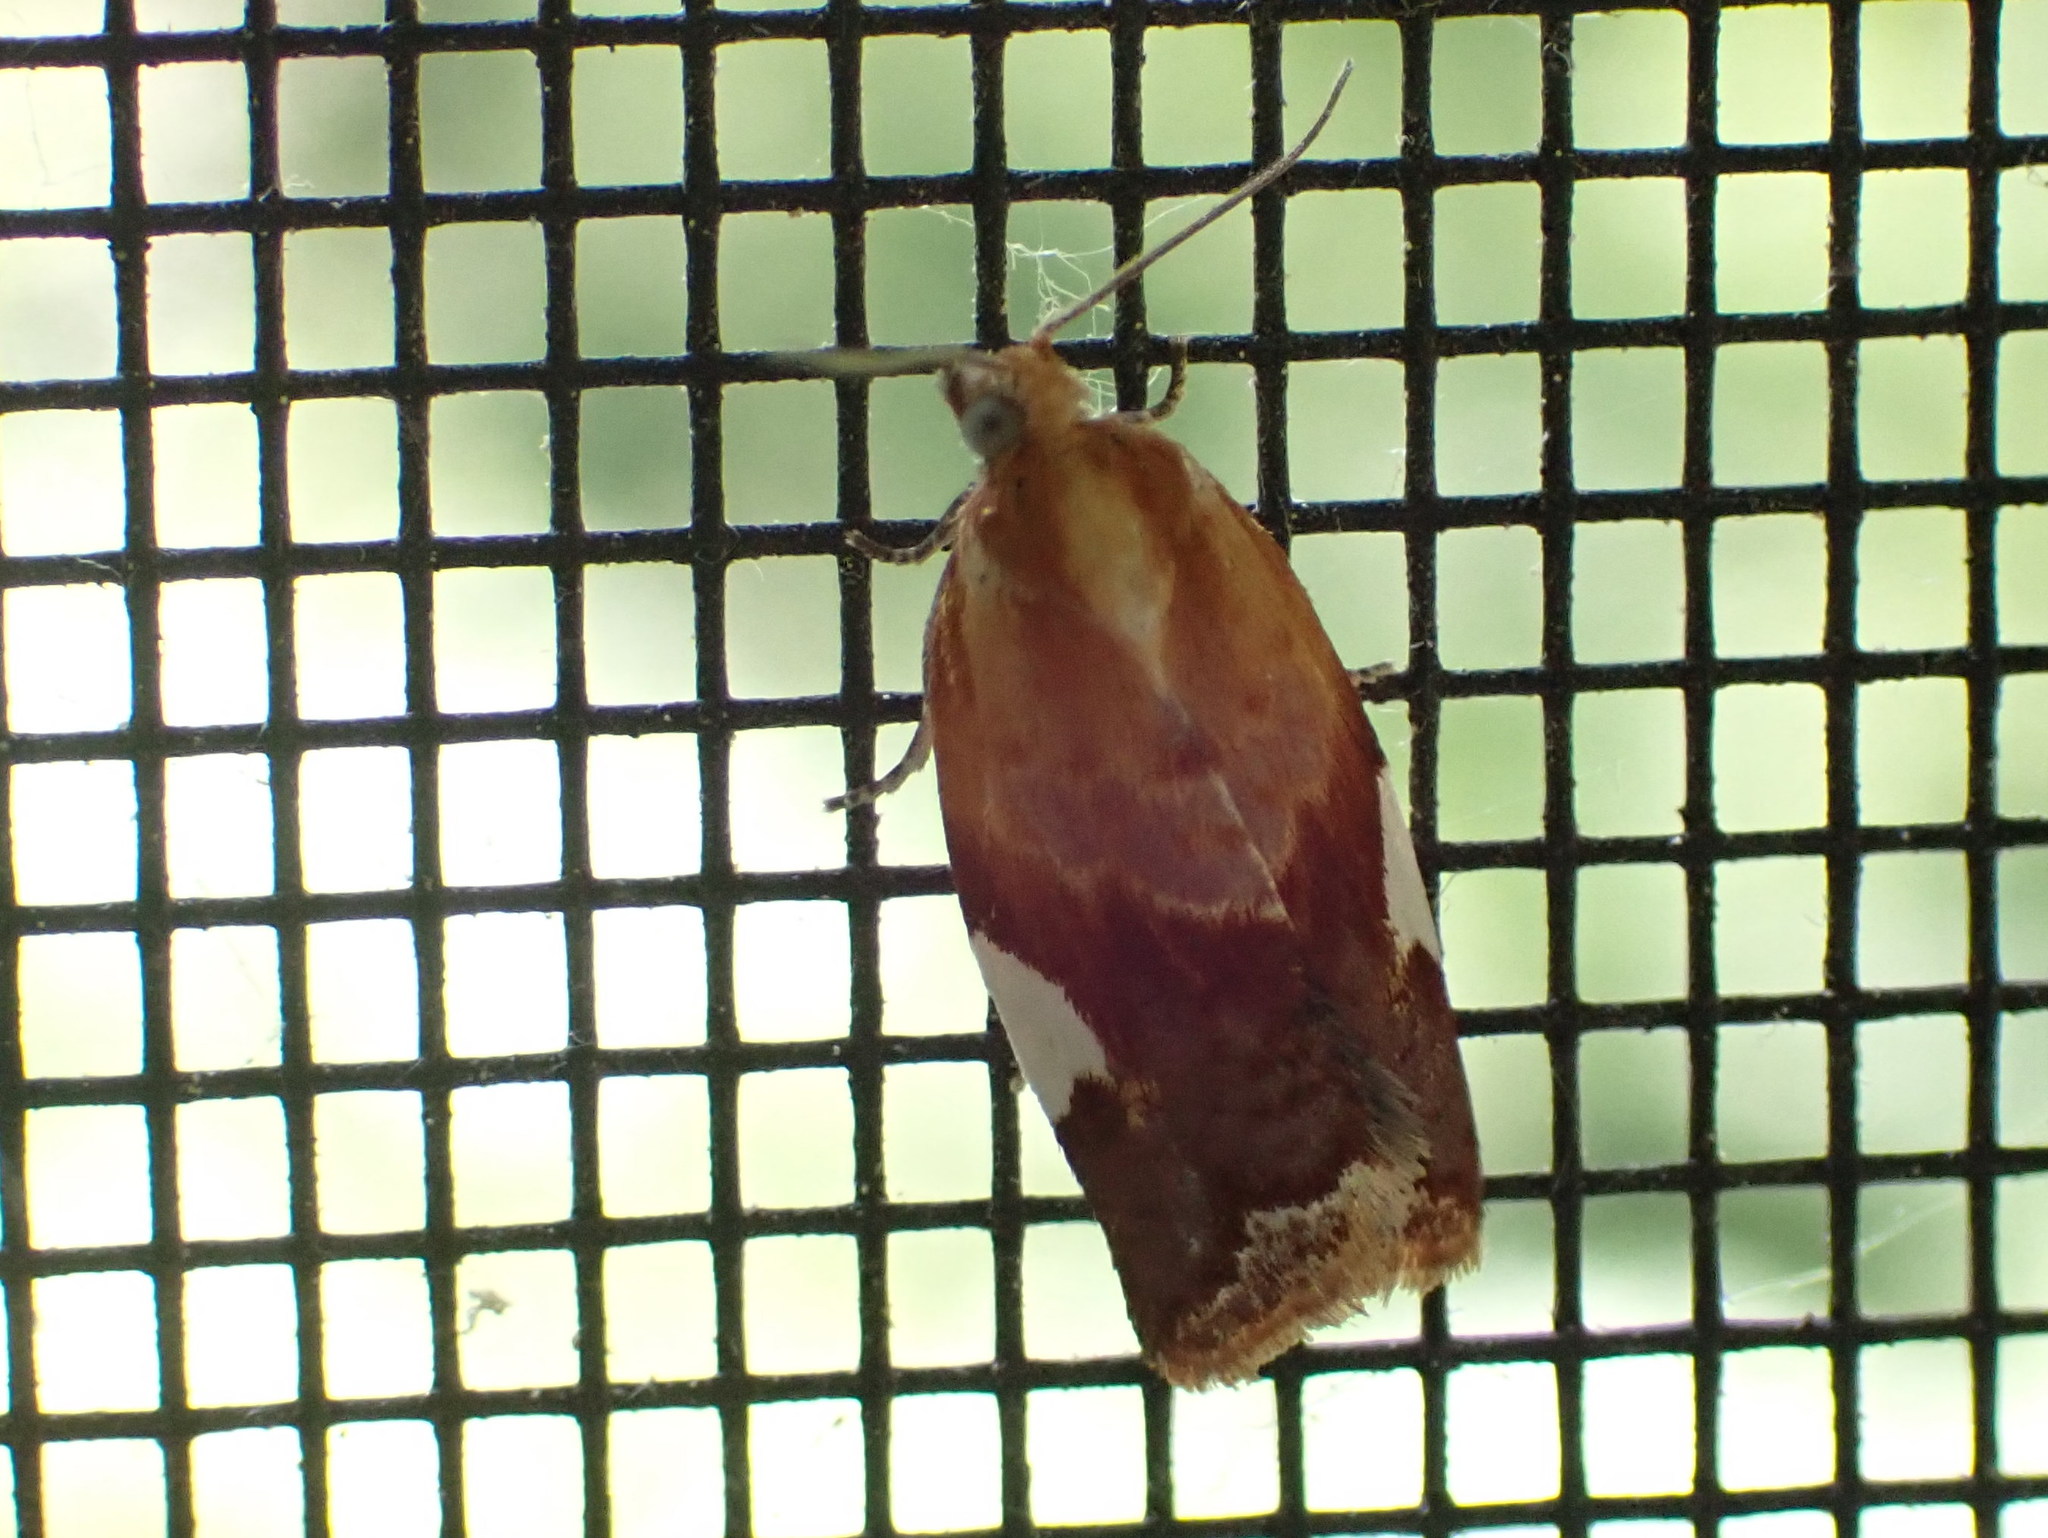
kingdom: Animalia
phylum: Arthropoda
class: Insecta
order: Lepidoptera
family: Tortricidae
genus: Clepsis
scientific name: Clepsis persicana
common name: White triangle tortrix
